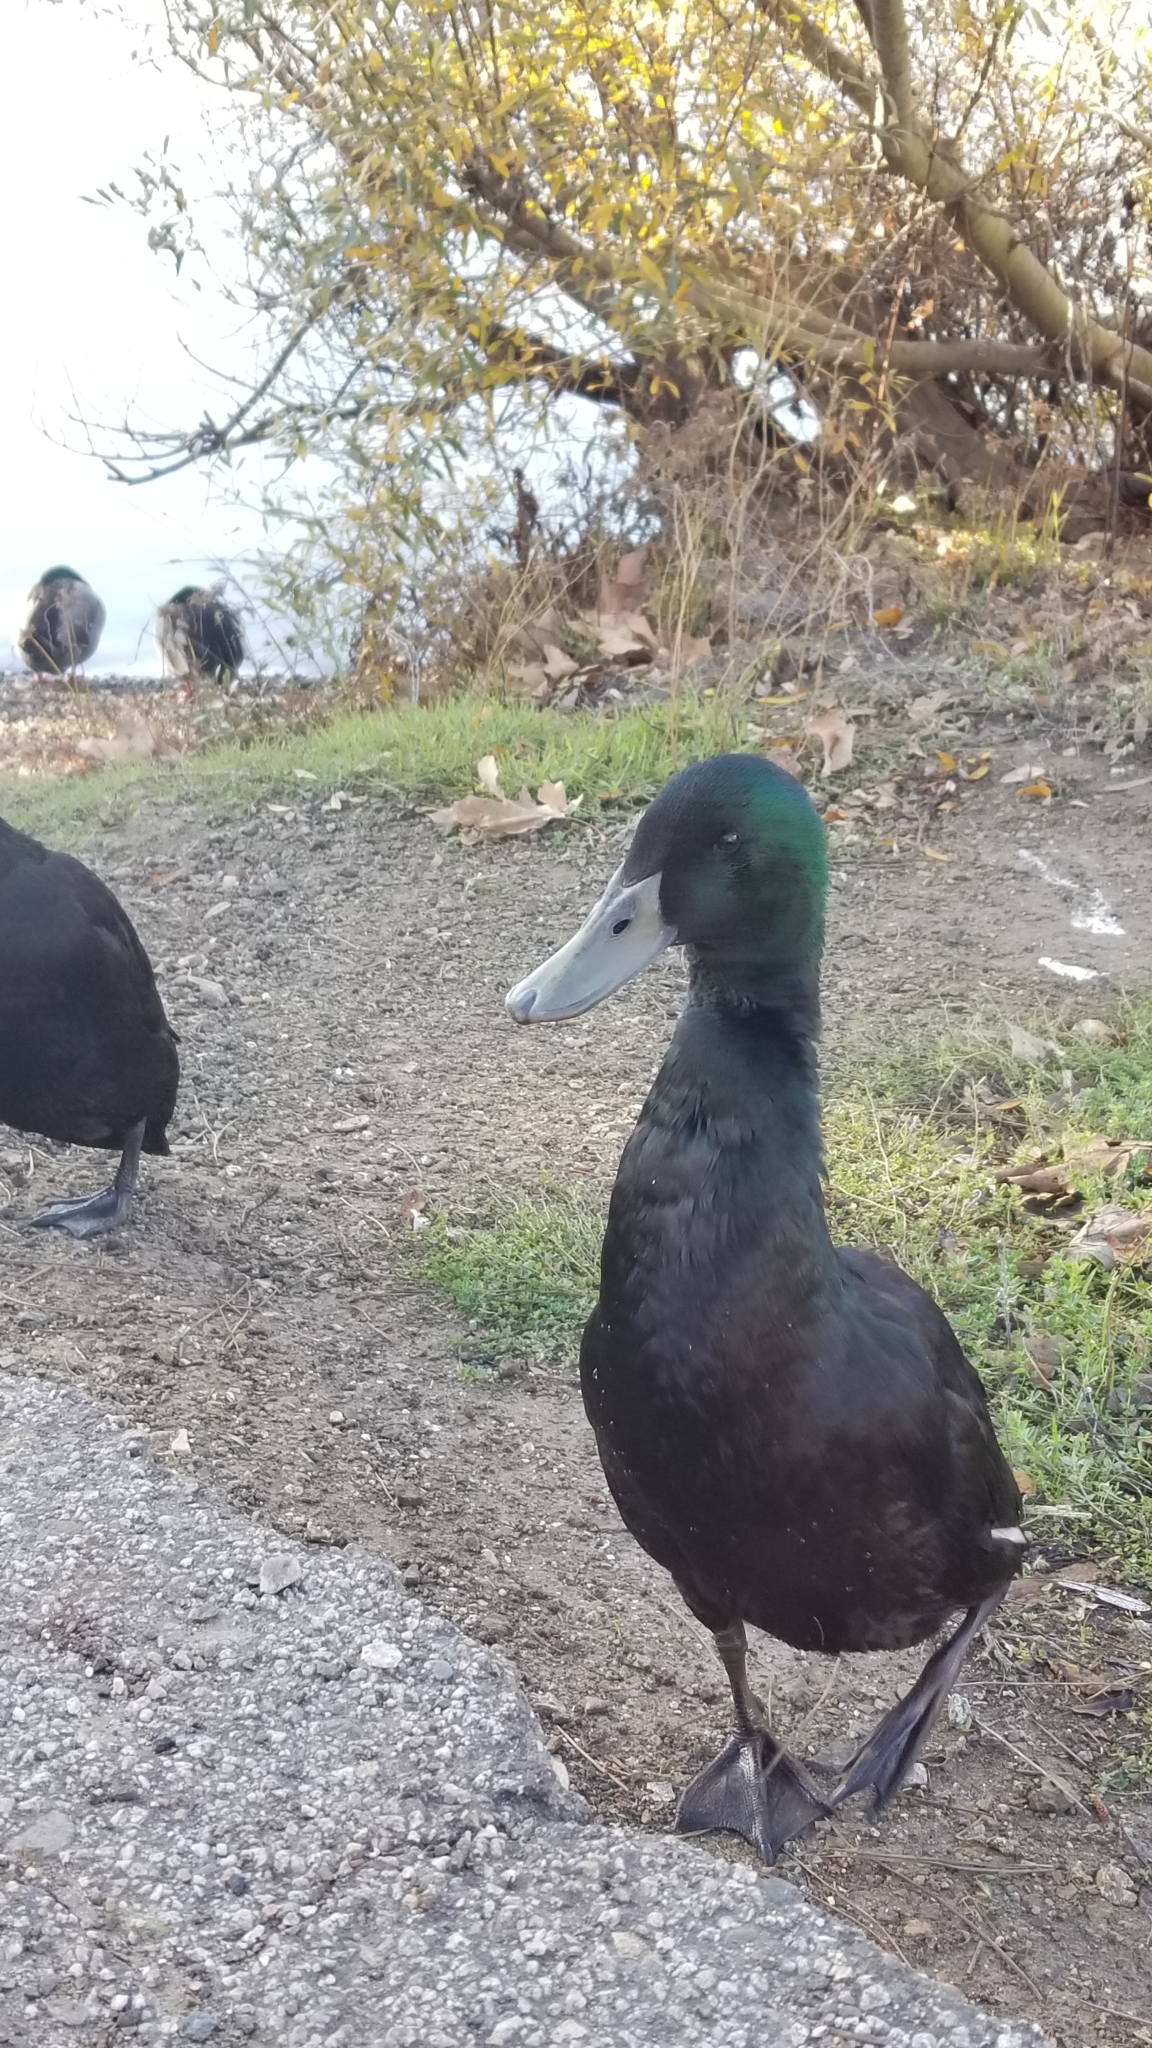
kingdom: Animalia
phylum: Chordata
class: Aves
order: Anseriformes
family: Anatidae
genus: Anas
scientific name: Anas platyrhynchos
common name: Mallard
